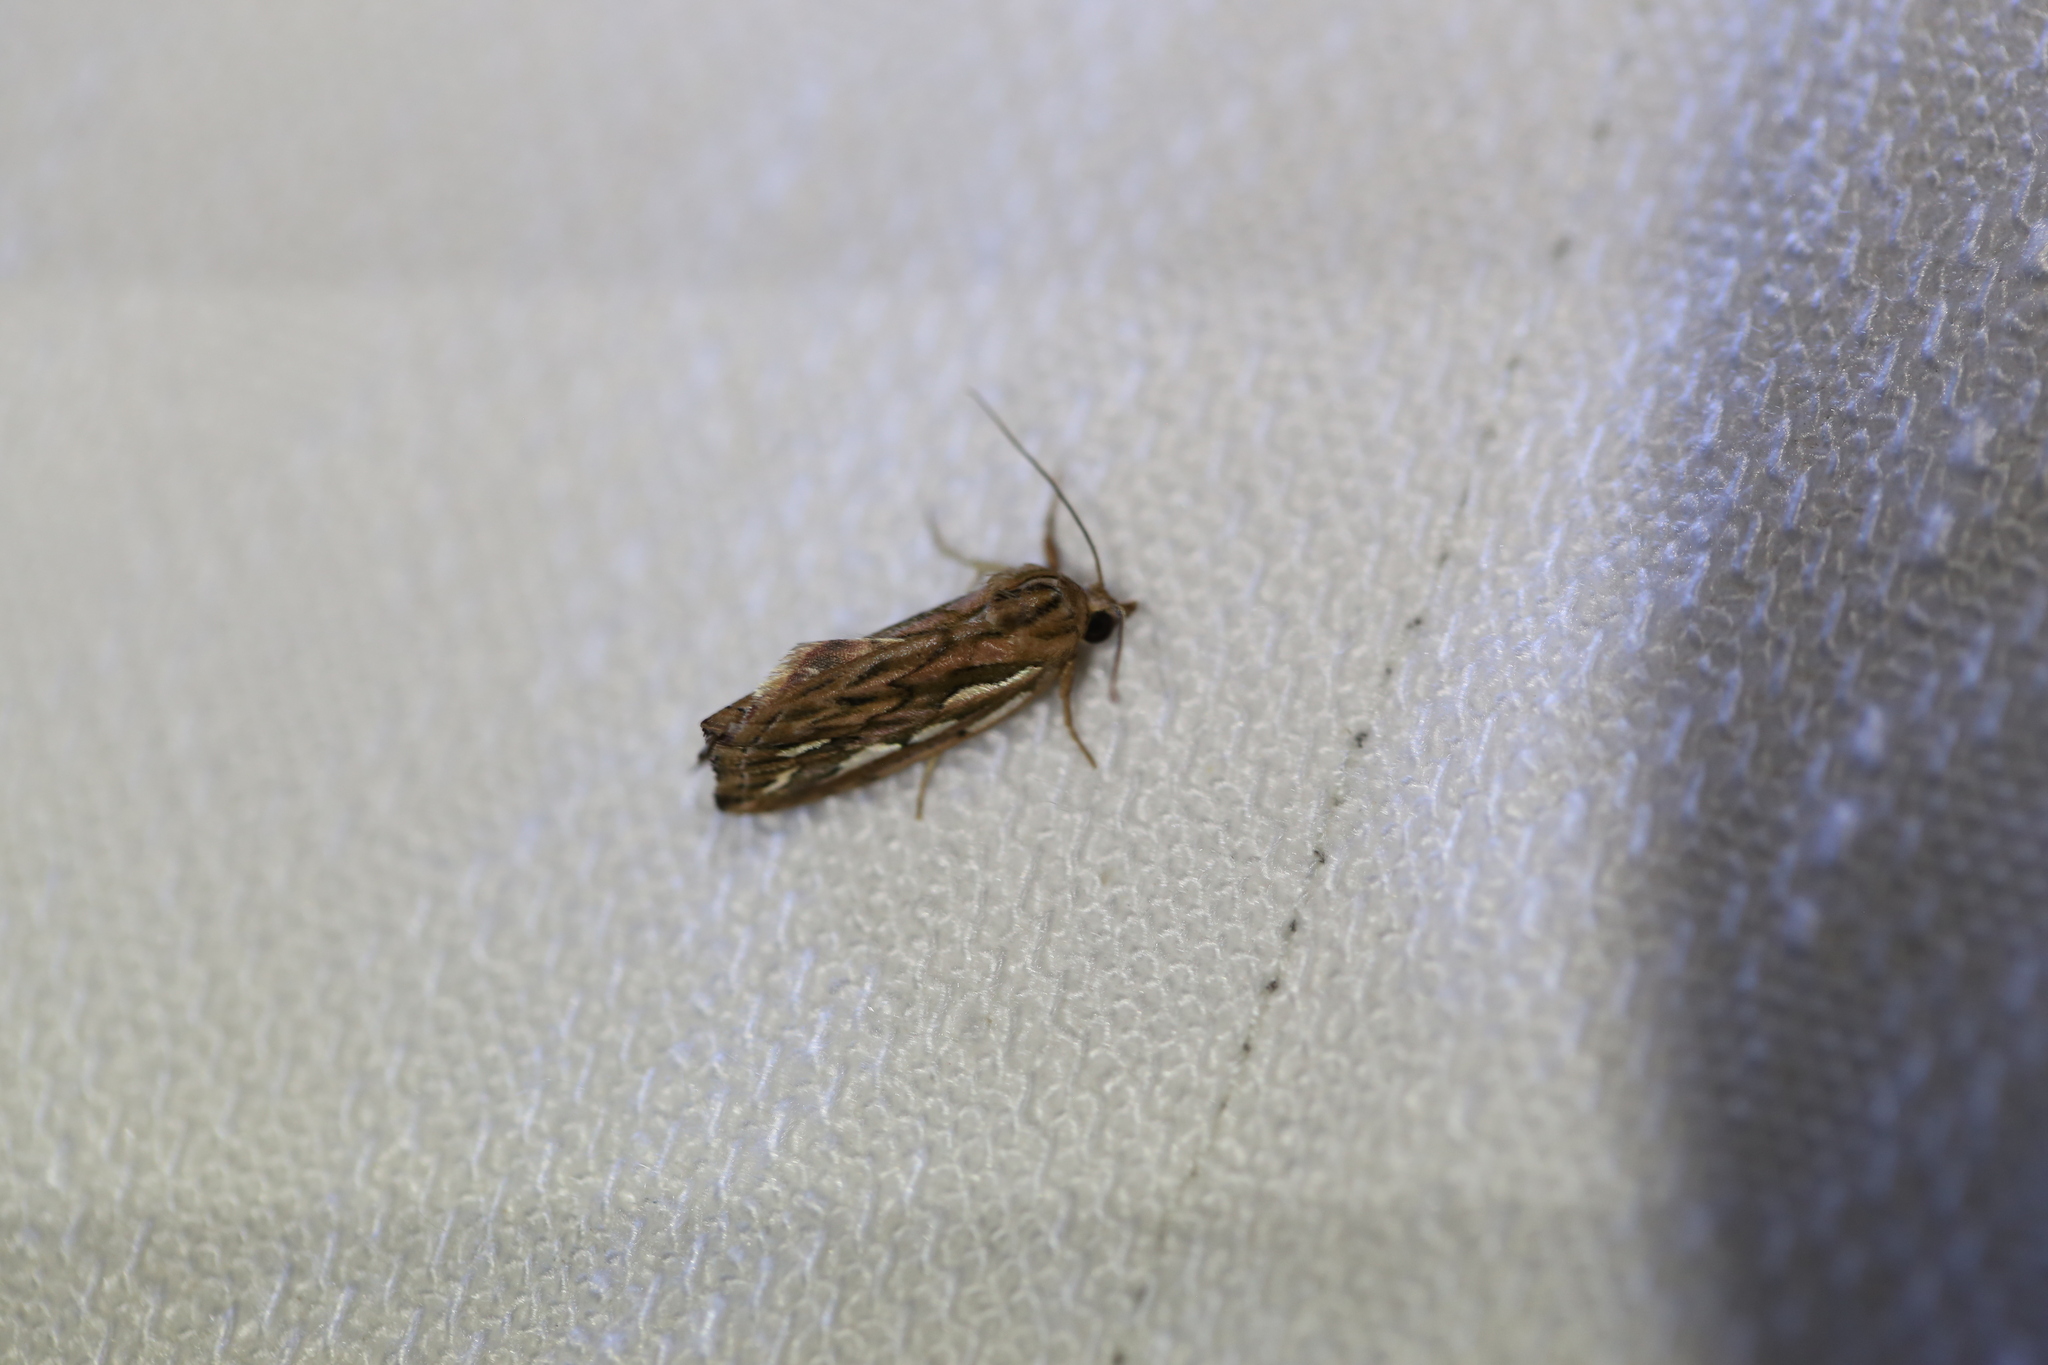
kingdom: Animalia
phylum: Arthropoda
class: Insecta
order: Lepidoptera
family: Erebidae
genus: Meyrickella
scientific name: Meyrickella torquesauria
